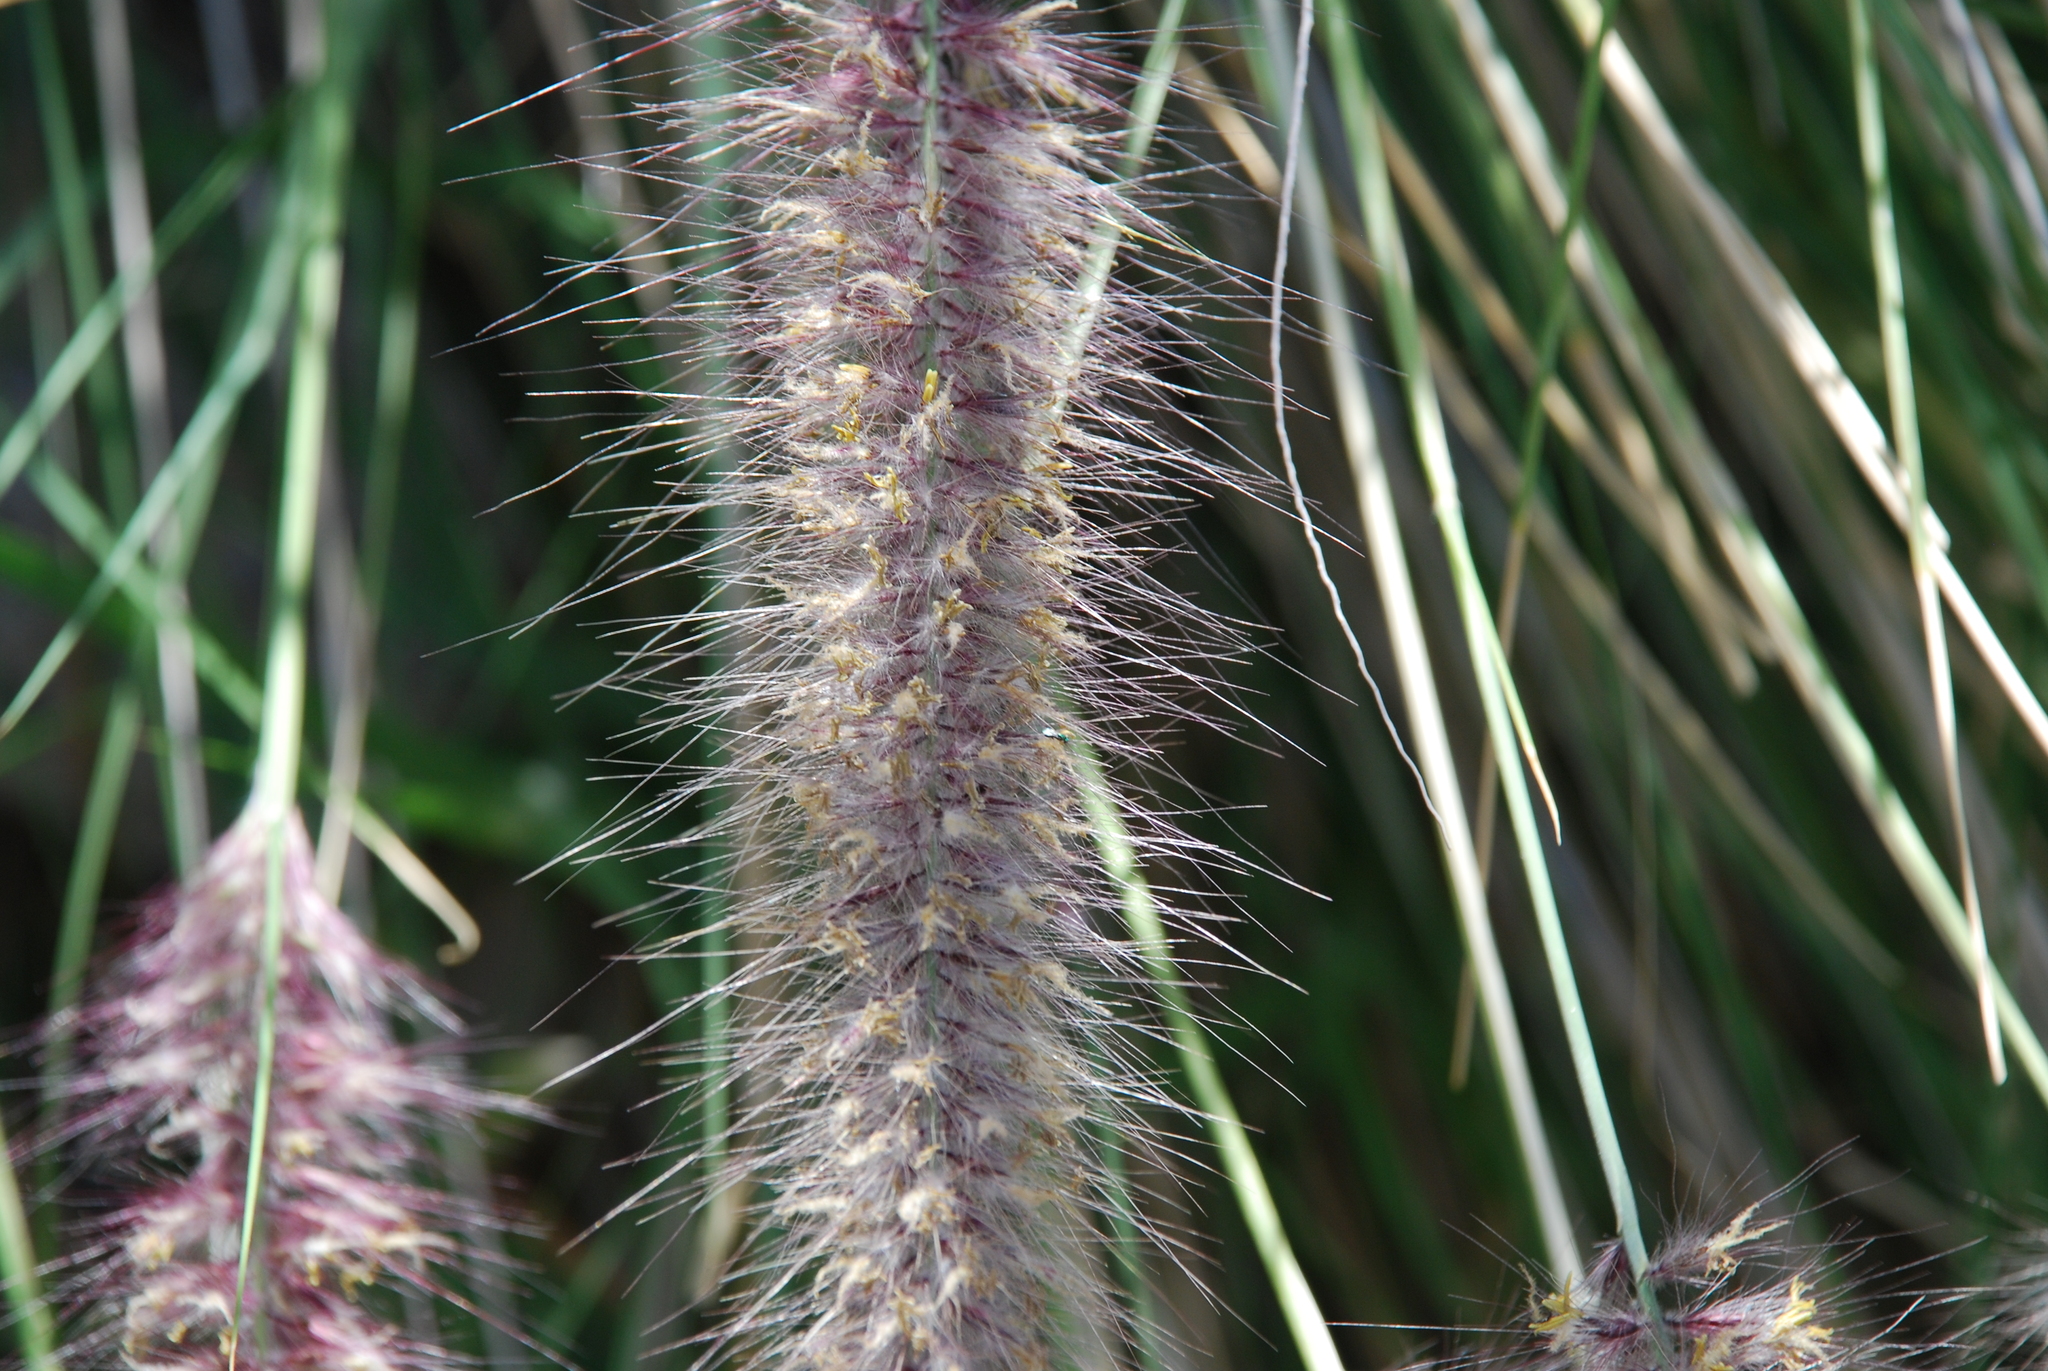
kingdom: Plantae
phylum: Tracheophyta
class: Liliopsida
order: Poales
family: Poaceae
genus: Cenchrus
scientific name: Cenchrus setaceus
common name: Crimson fountaingrass
